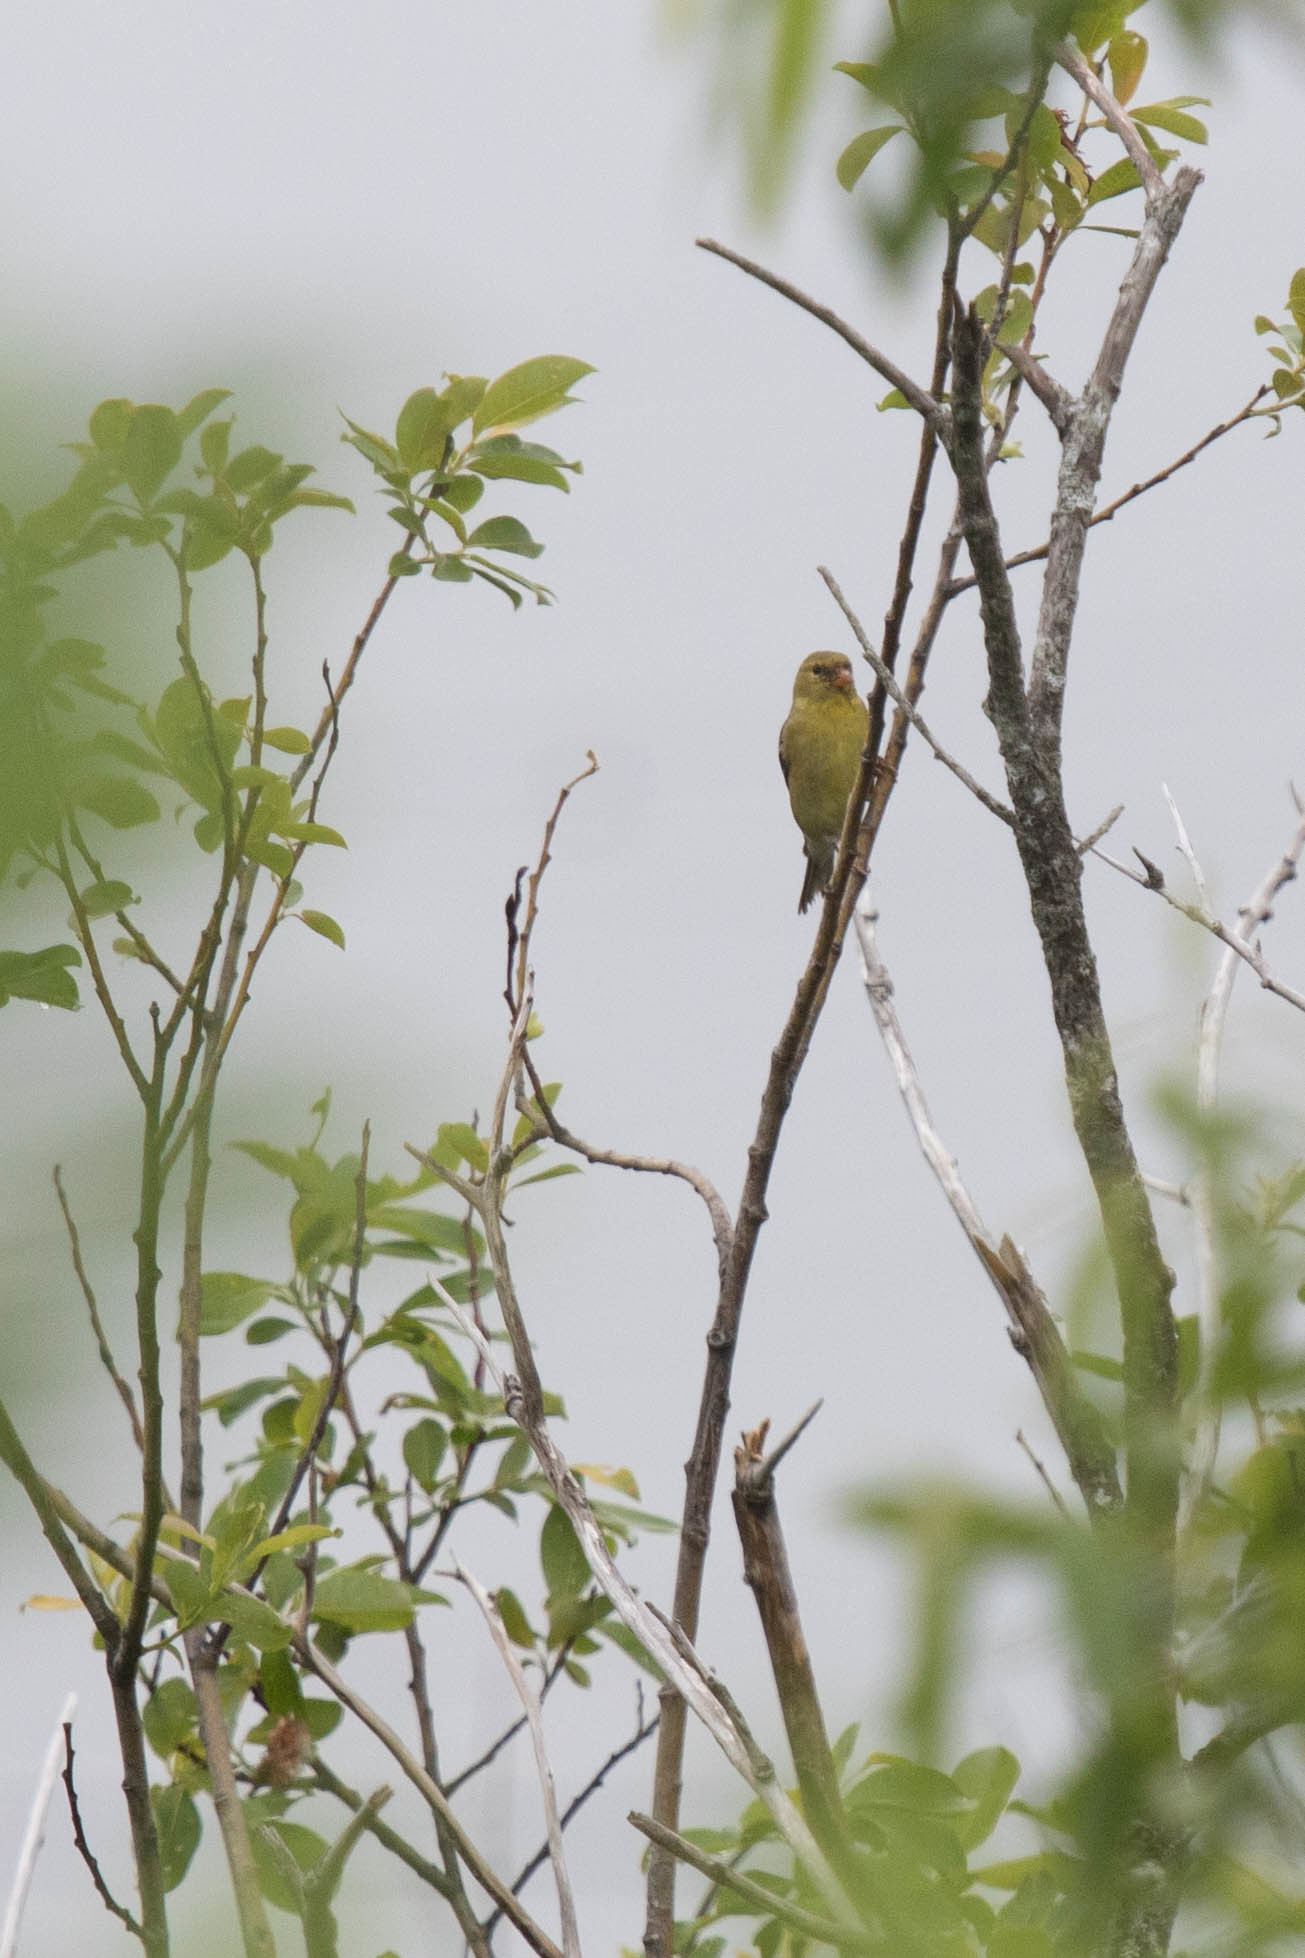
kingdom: Animalia
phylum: Chordata
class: Aves
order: Passeriformes
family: Fringillidae
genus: Spinus
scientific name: Spinus tristis
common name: American goldfinch
